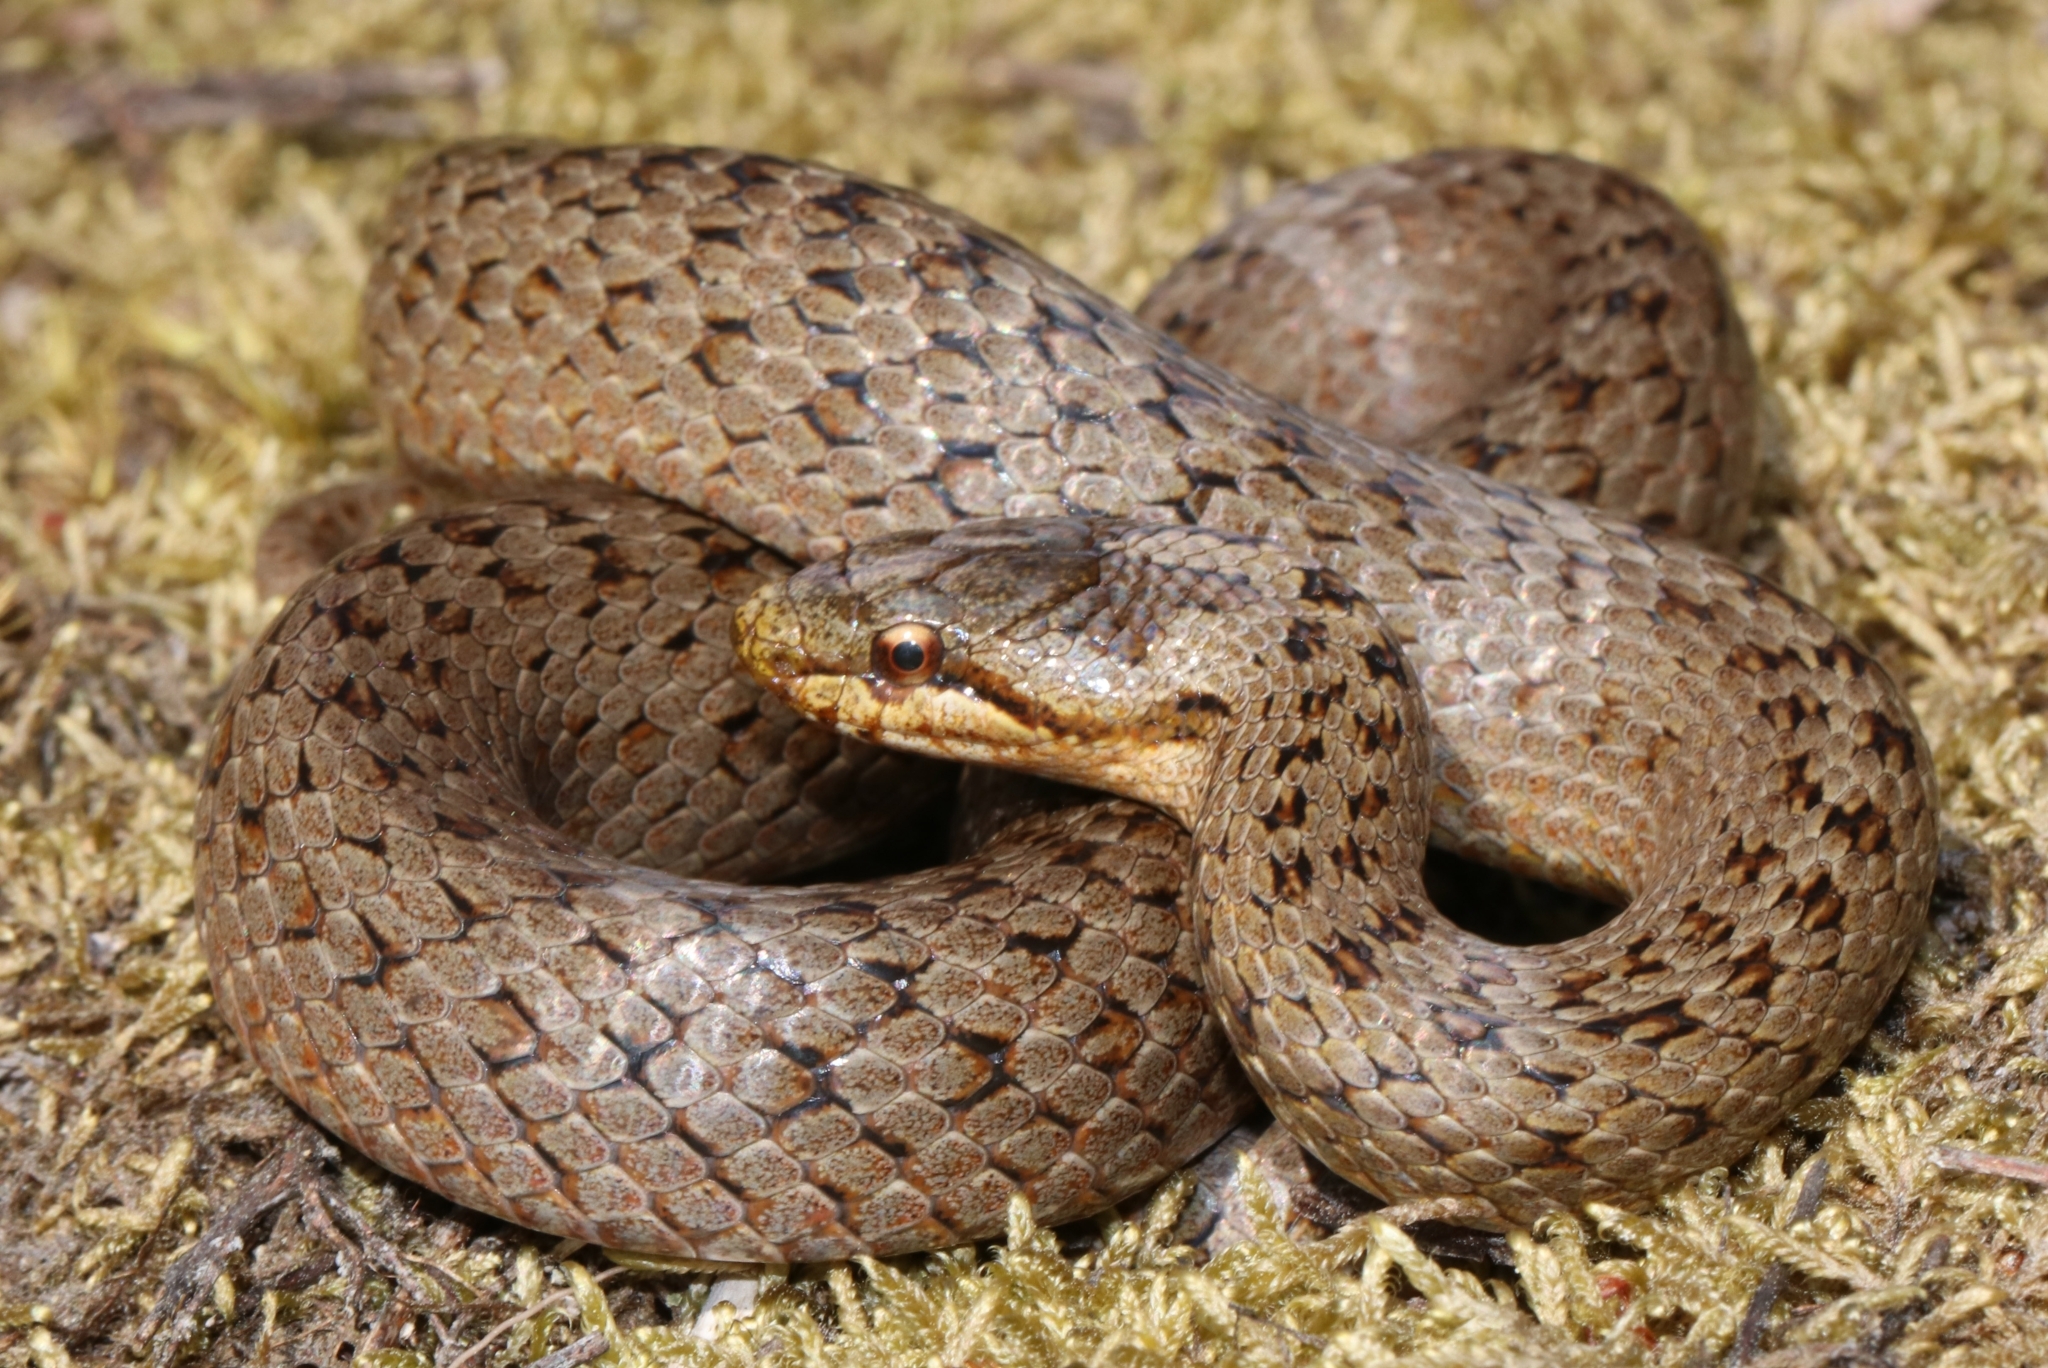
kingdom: Animalia
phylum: Chordata
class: Squamata
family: Colubridae
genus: Coronella
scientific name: Coronella austriaca
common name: Smooth snake
